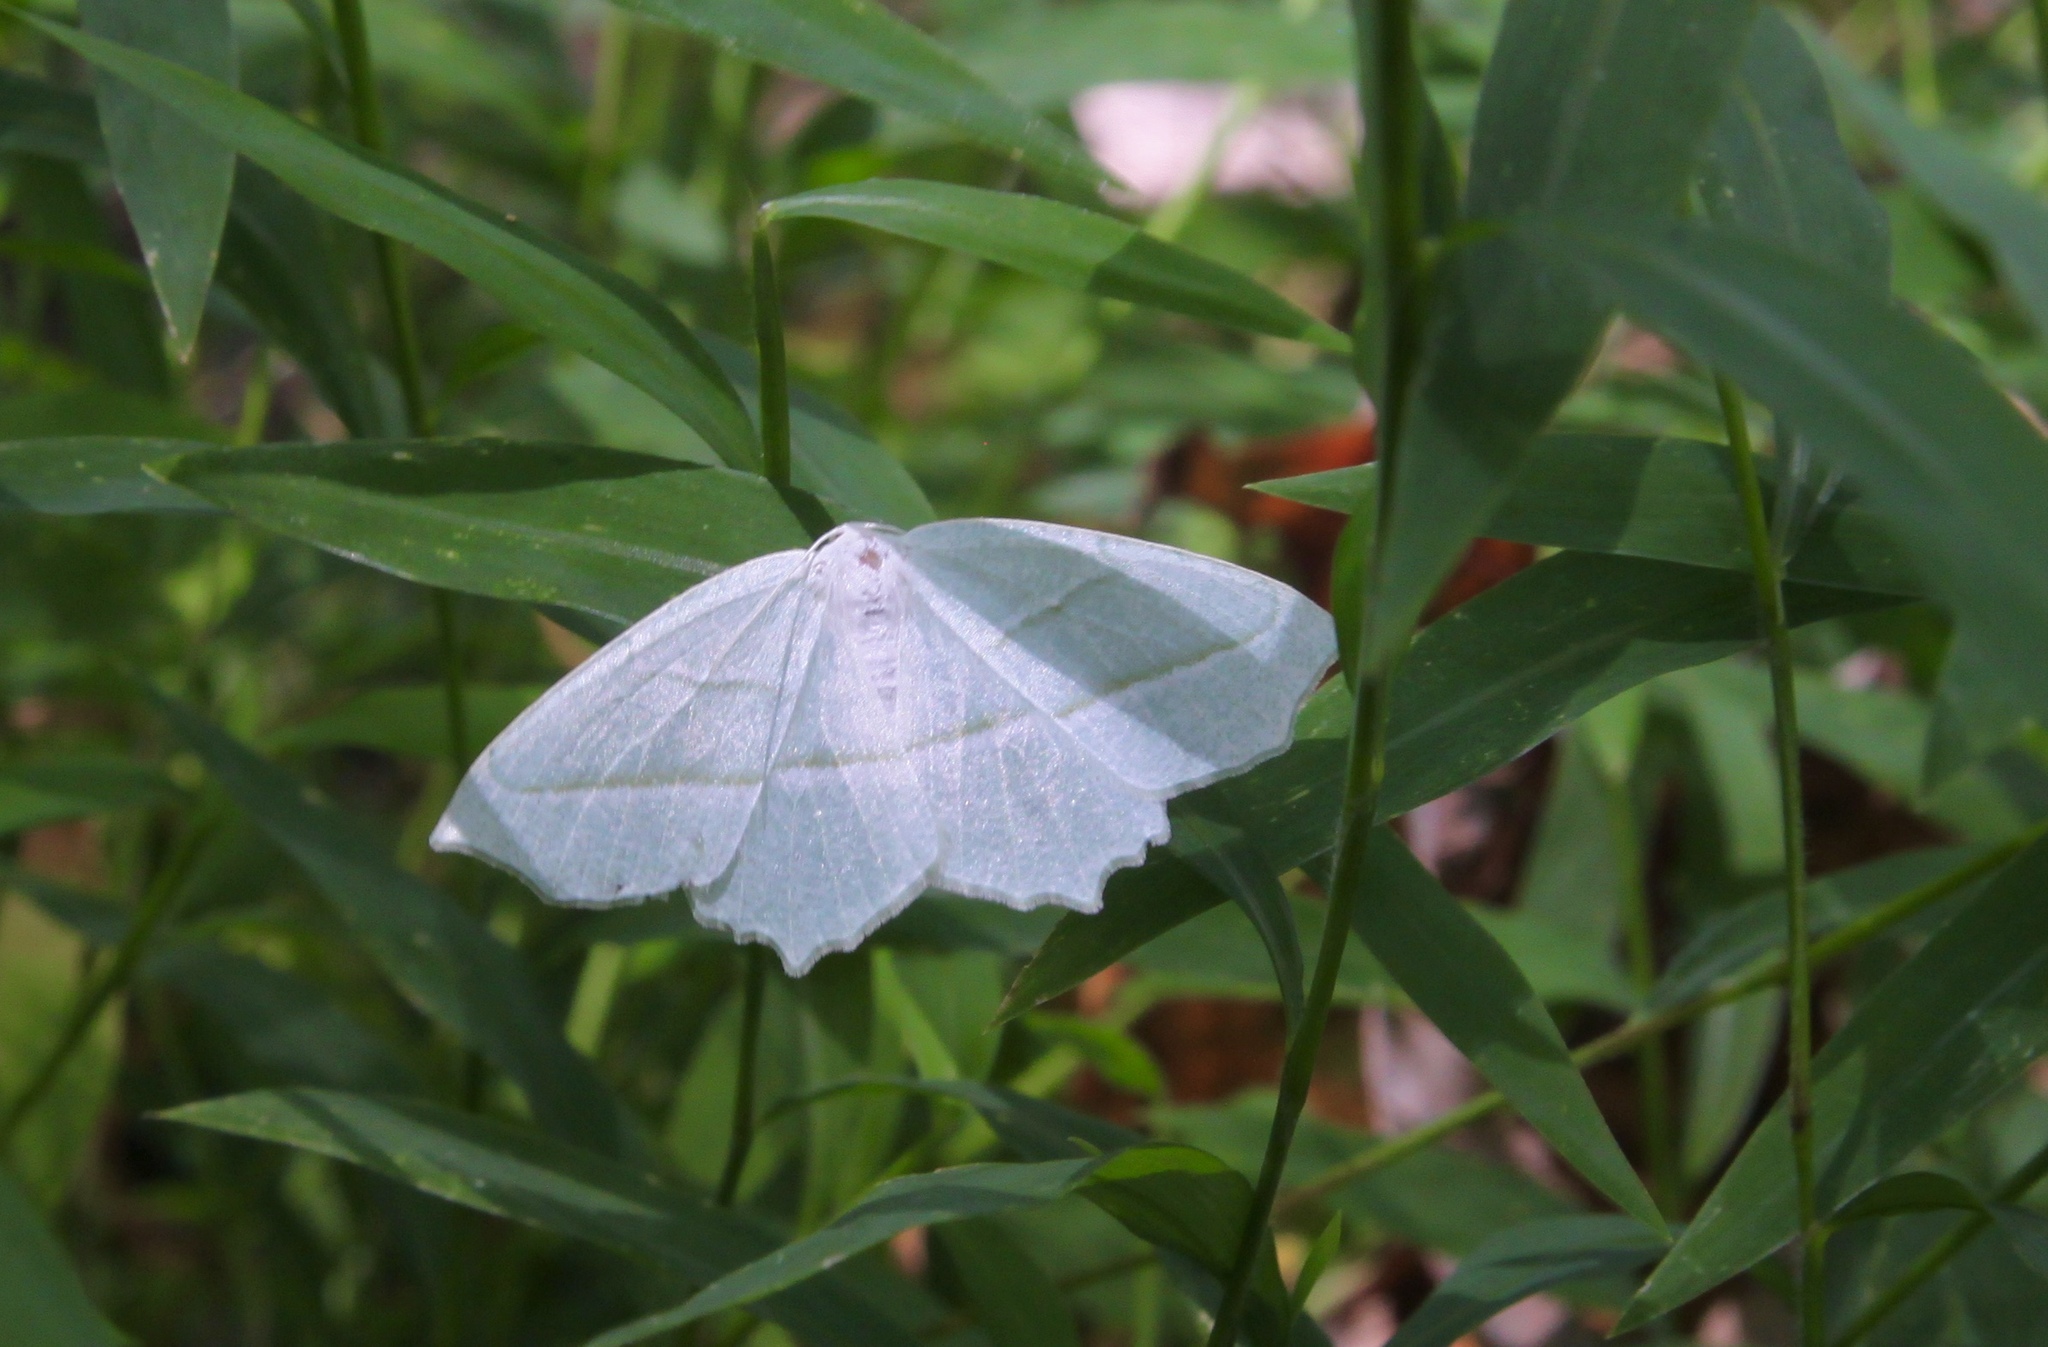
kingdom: Animalia
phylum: Arthropoda
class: Insecta
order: Lepidoptera
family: Geometridae
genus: Campaea
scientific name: Campaea perlata
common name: Fringed looper
